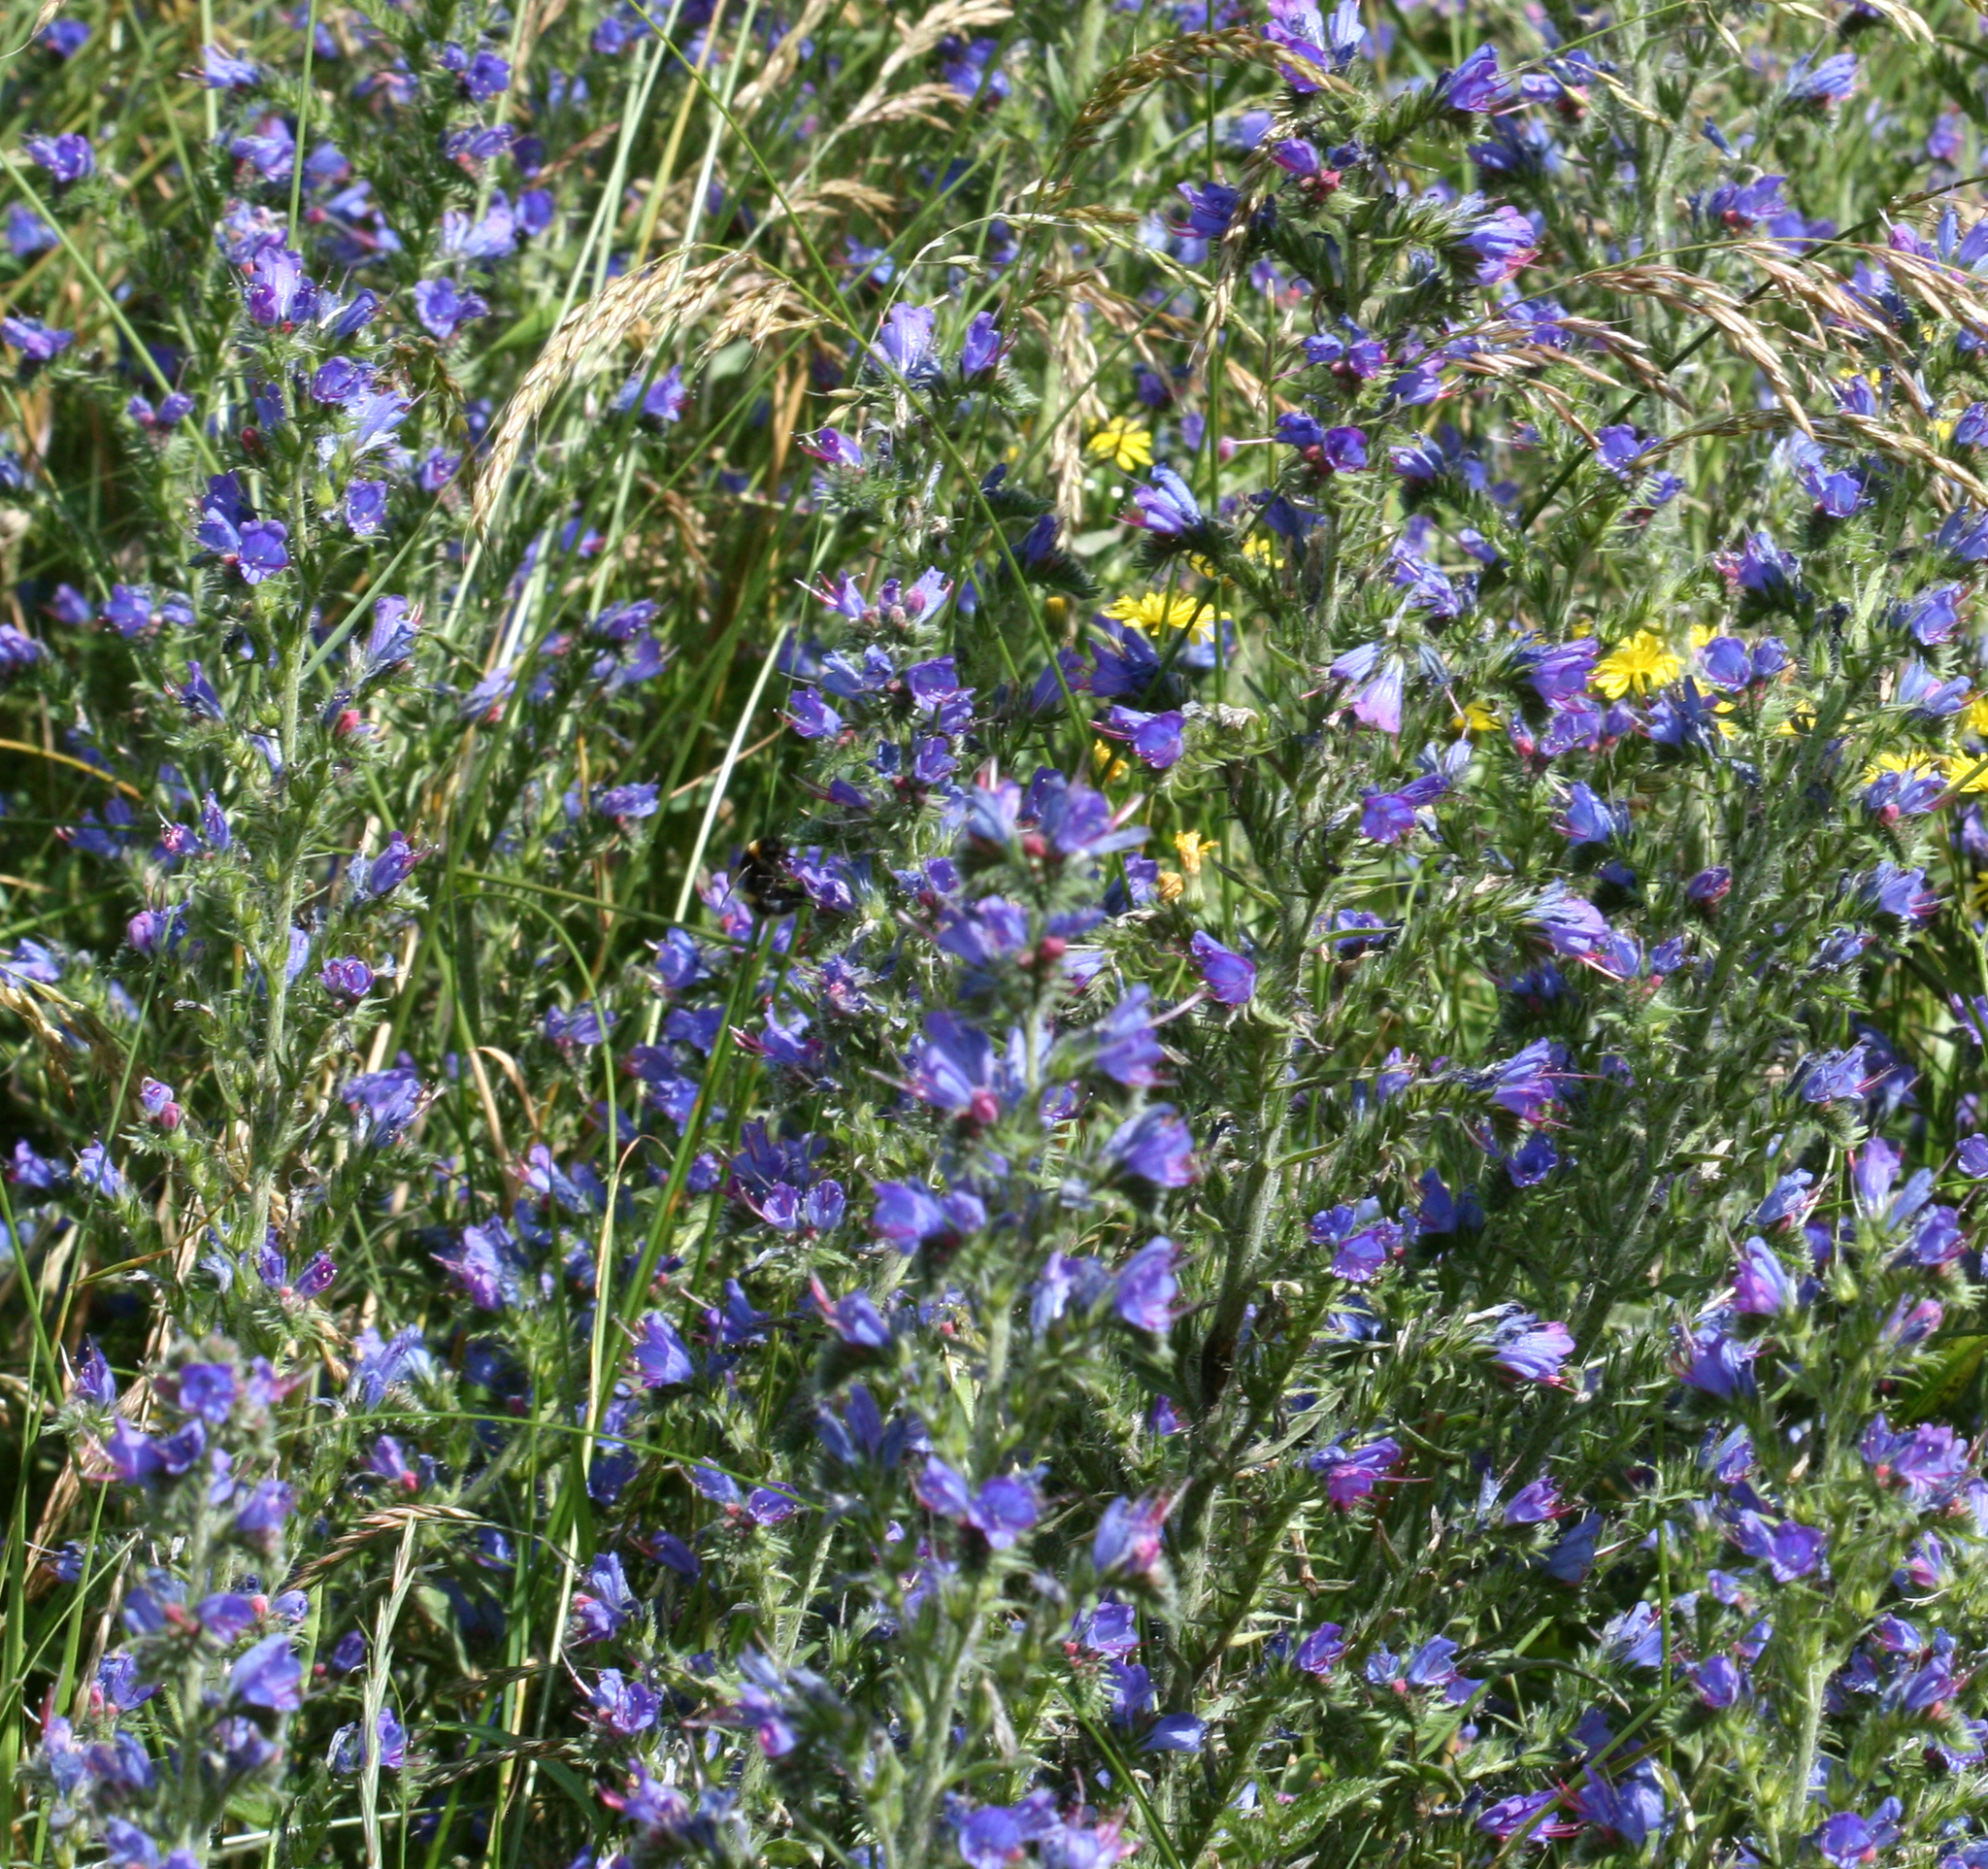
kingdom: Plantae
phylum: Tracheophyta
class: Magnoliopsida
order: Boraginales
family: Boraginaceae
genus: Echium
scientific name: Echium vulgare
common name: Common viper's bugloss
